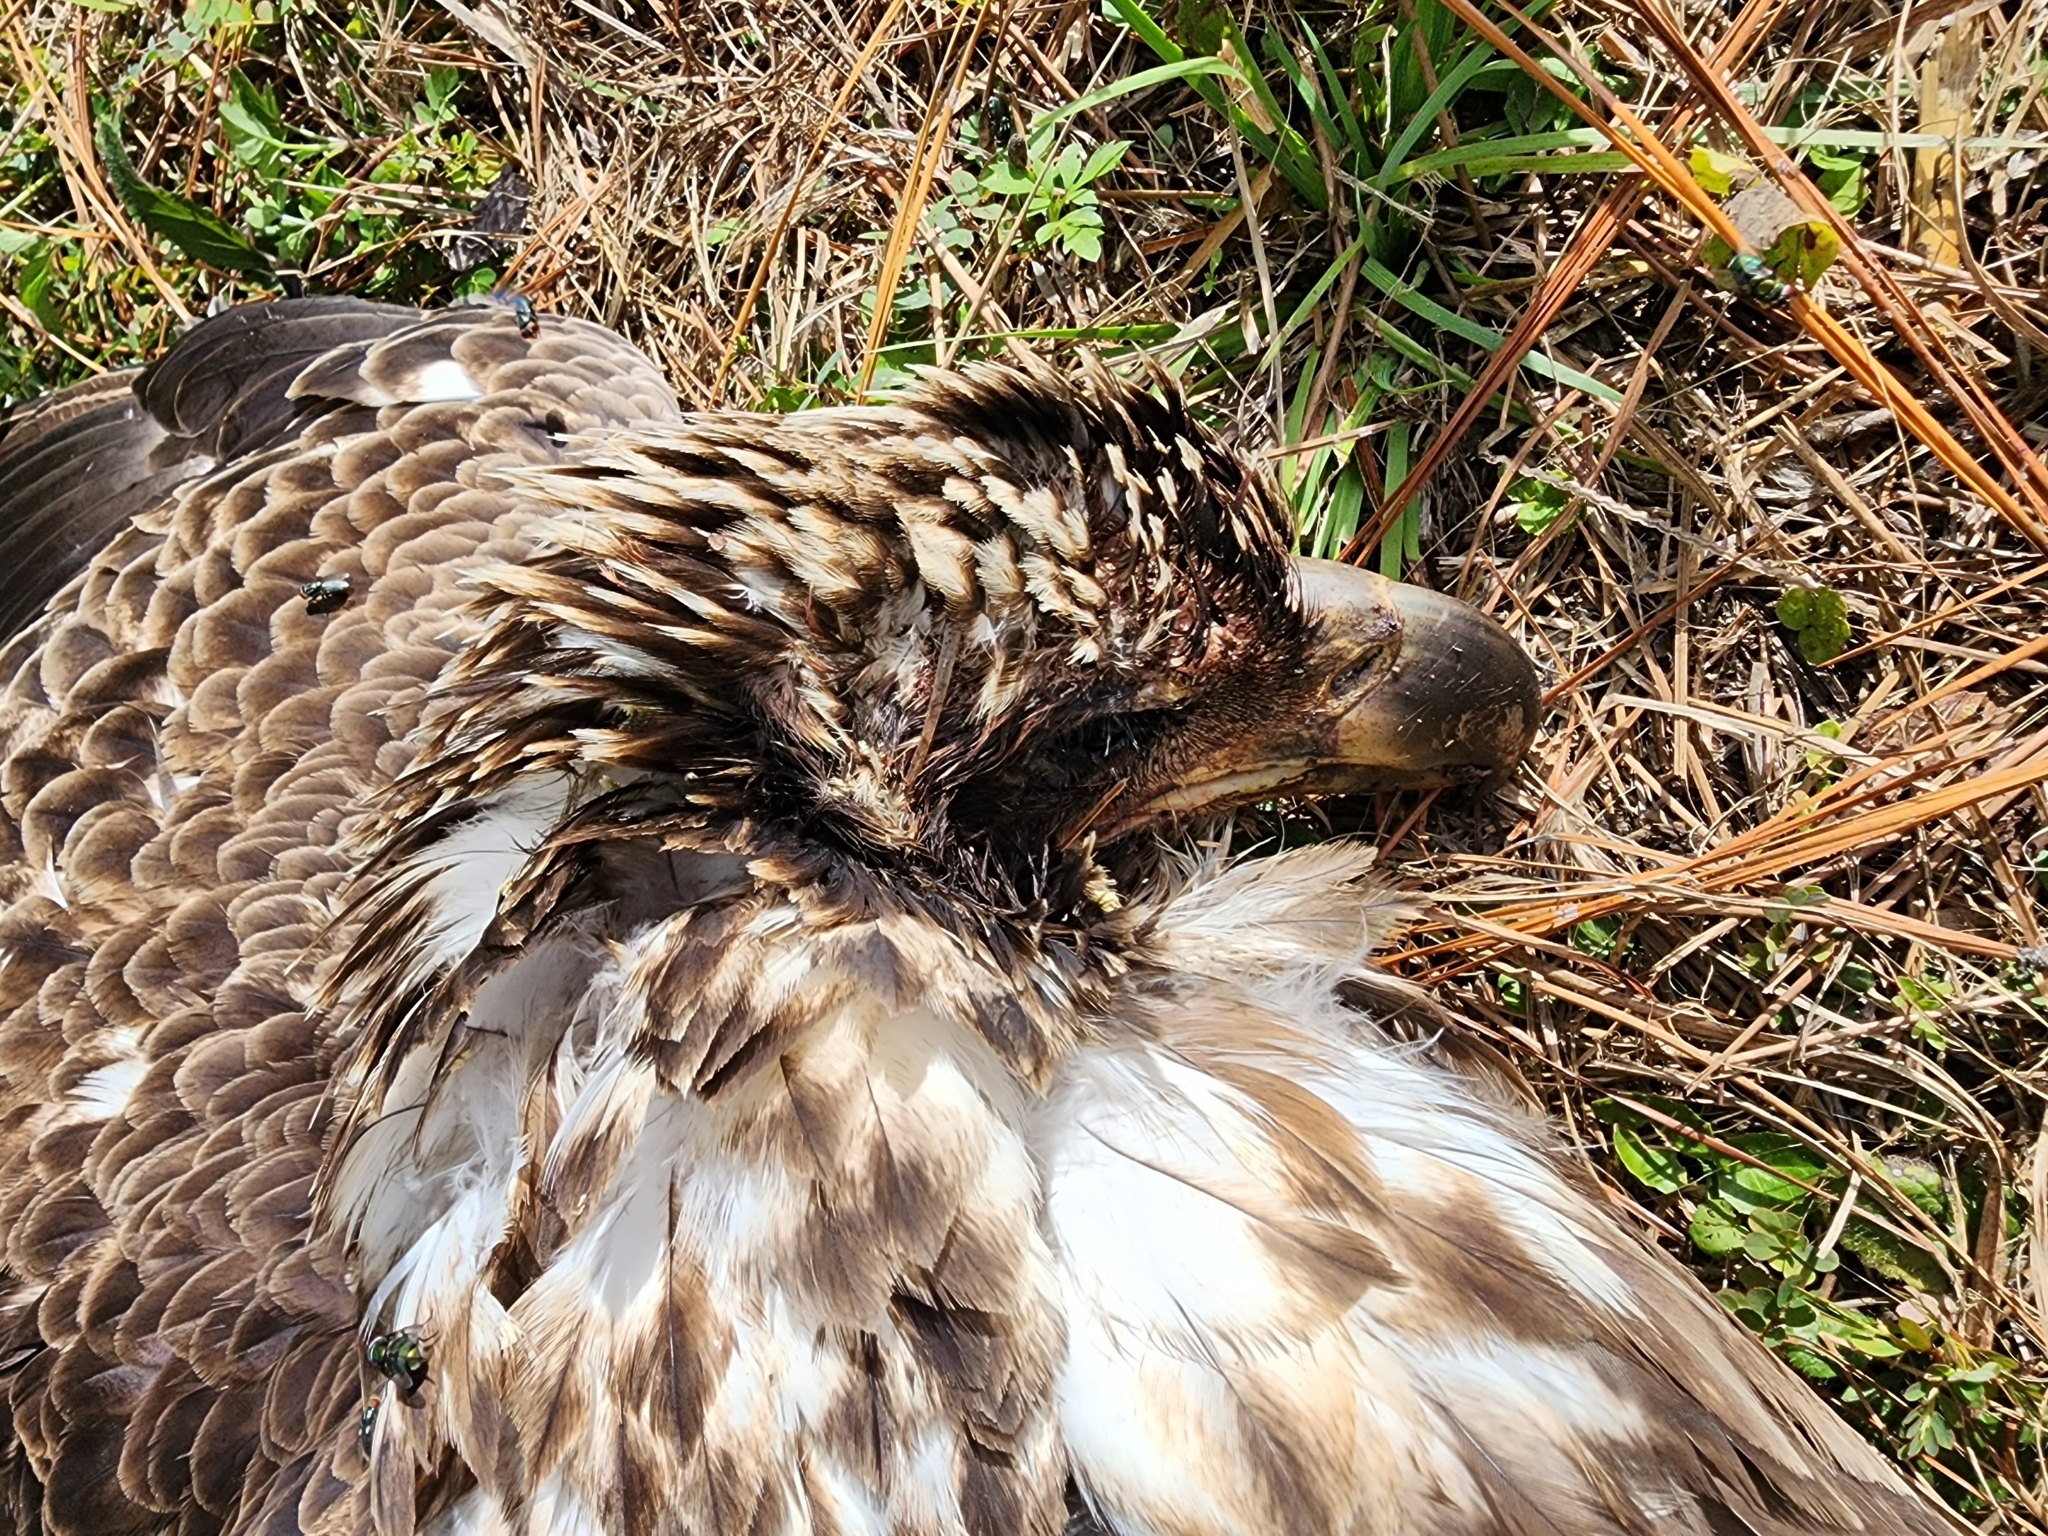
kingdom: Animalia
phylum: Chordata
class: Aves
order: Accipitriformes
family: Accipitridae
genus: Haliaeetus
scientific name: Haliaeetus leucocephalus
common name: Bald eagle
